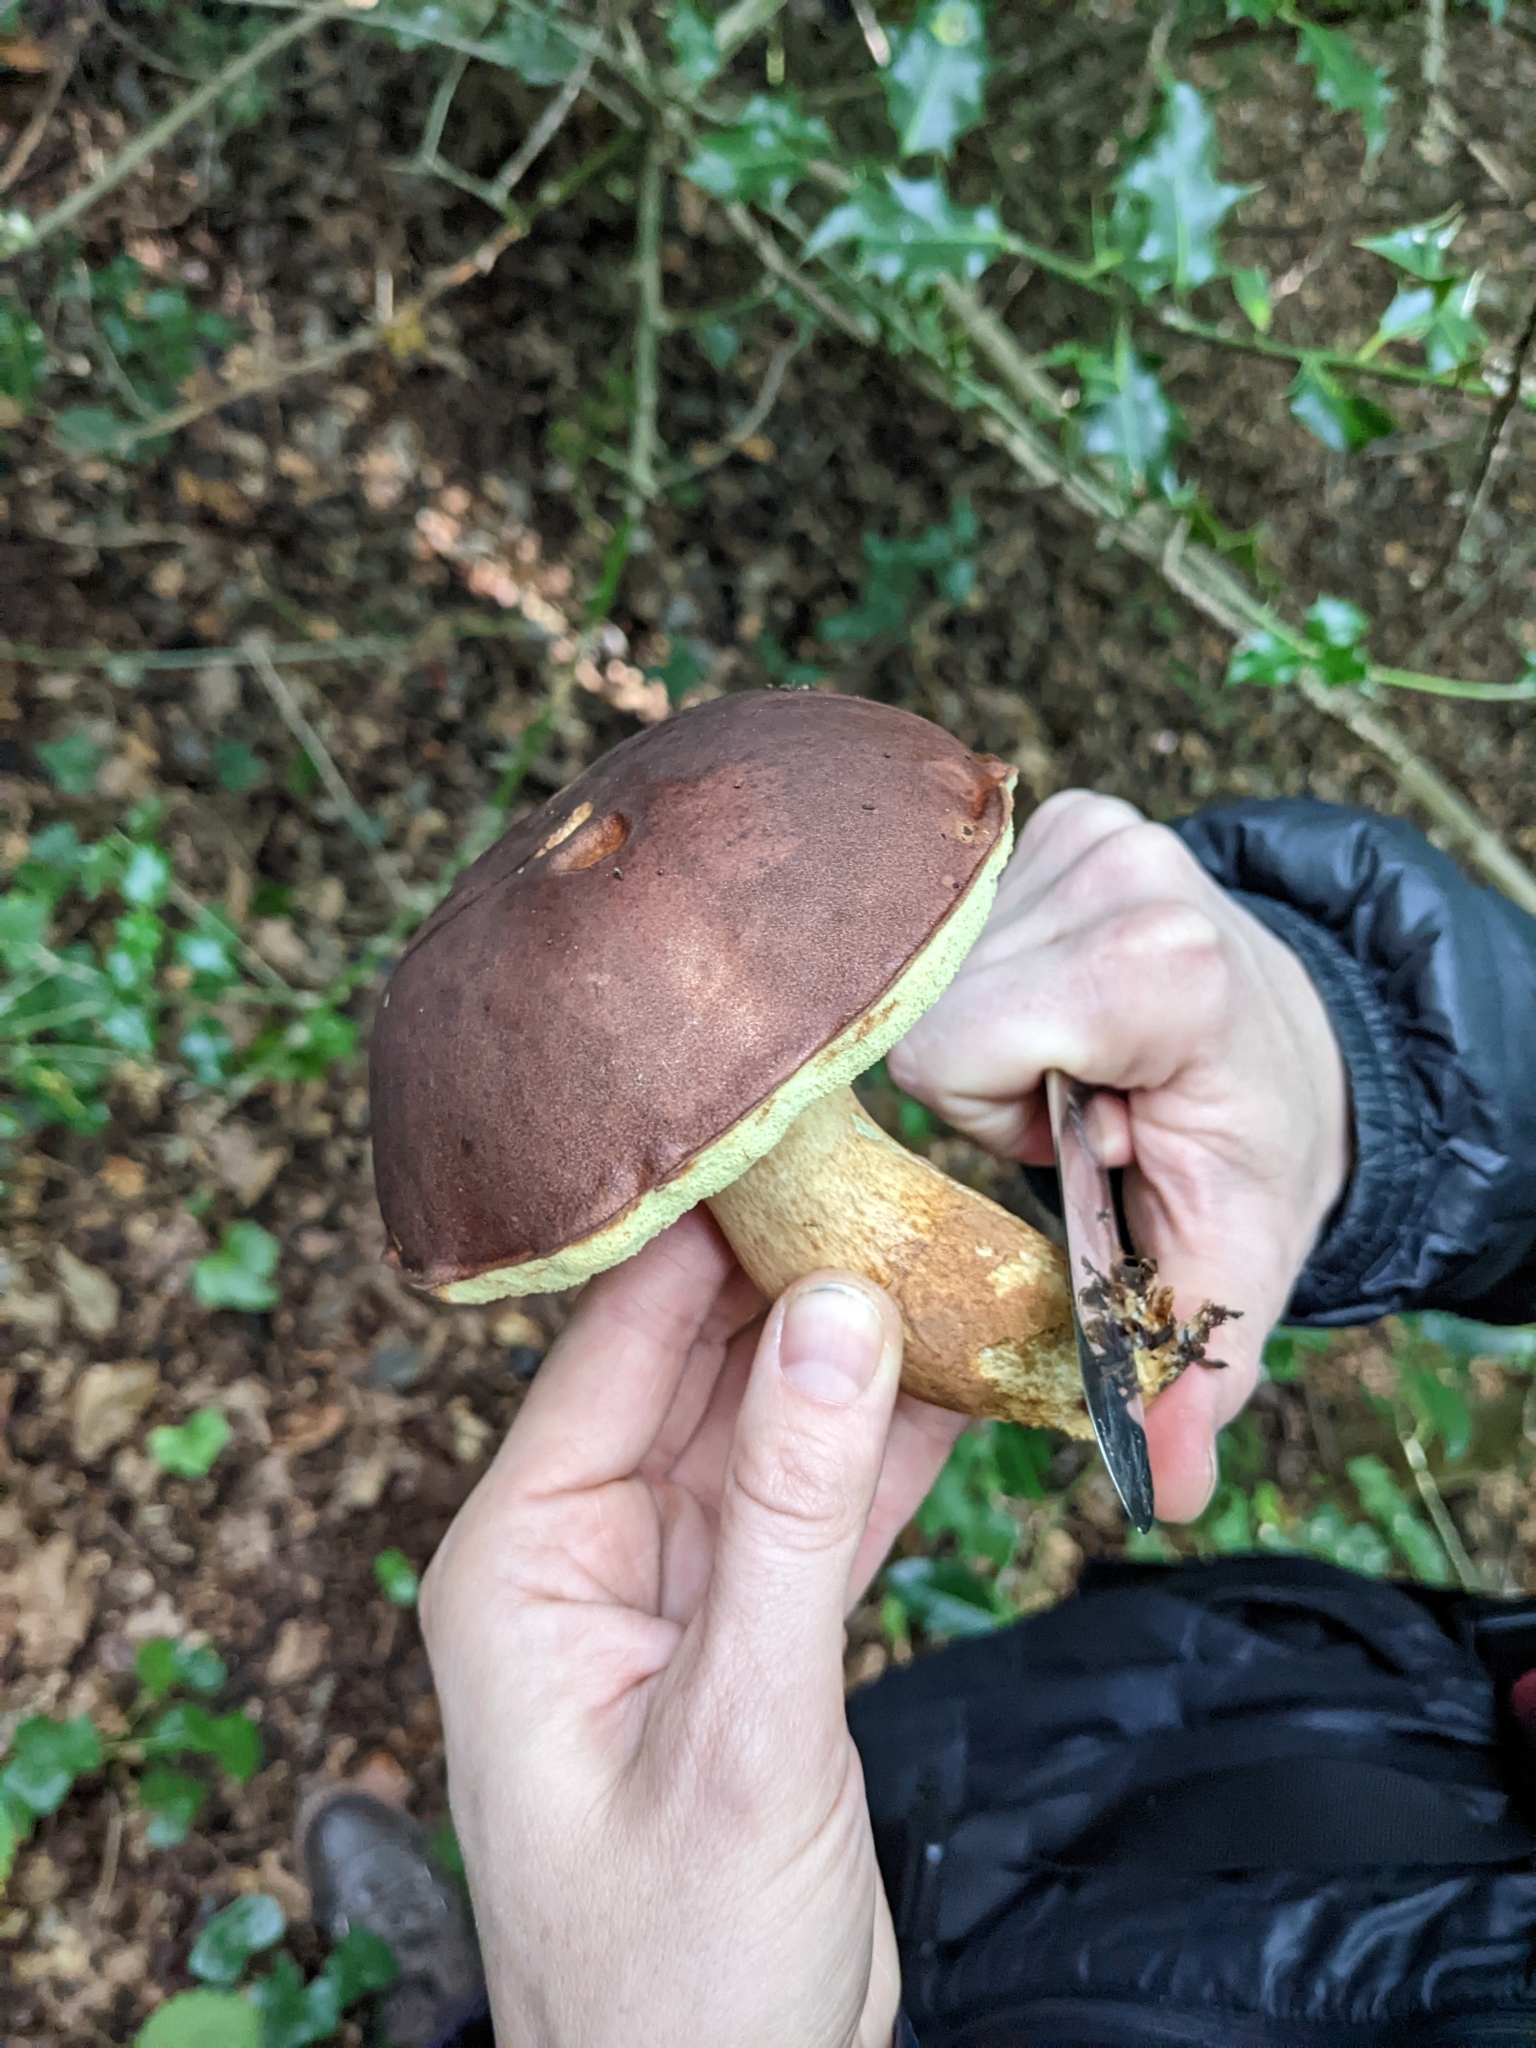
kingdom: Fungi
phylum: Basidiomycota
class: Agaricomycetes
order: Boletales
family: Boletaceae
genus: Imleria
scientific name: Imleria badia
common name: Bay bolete
